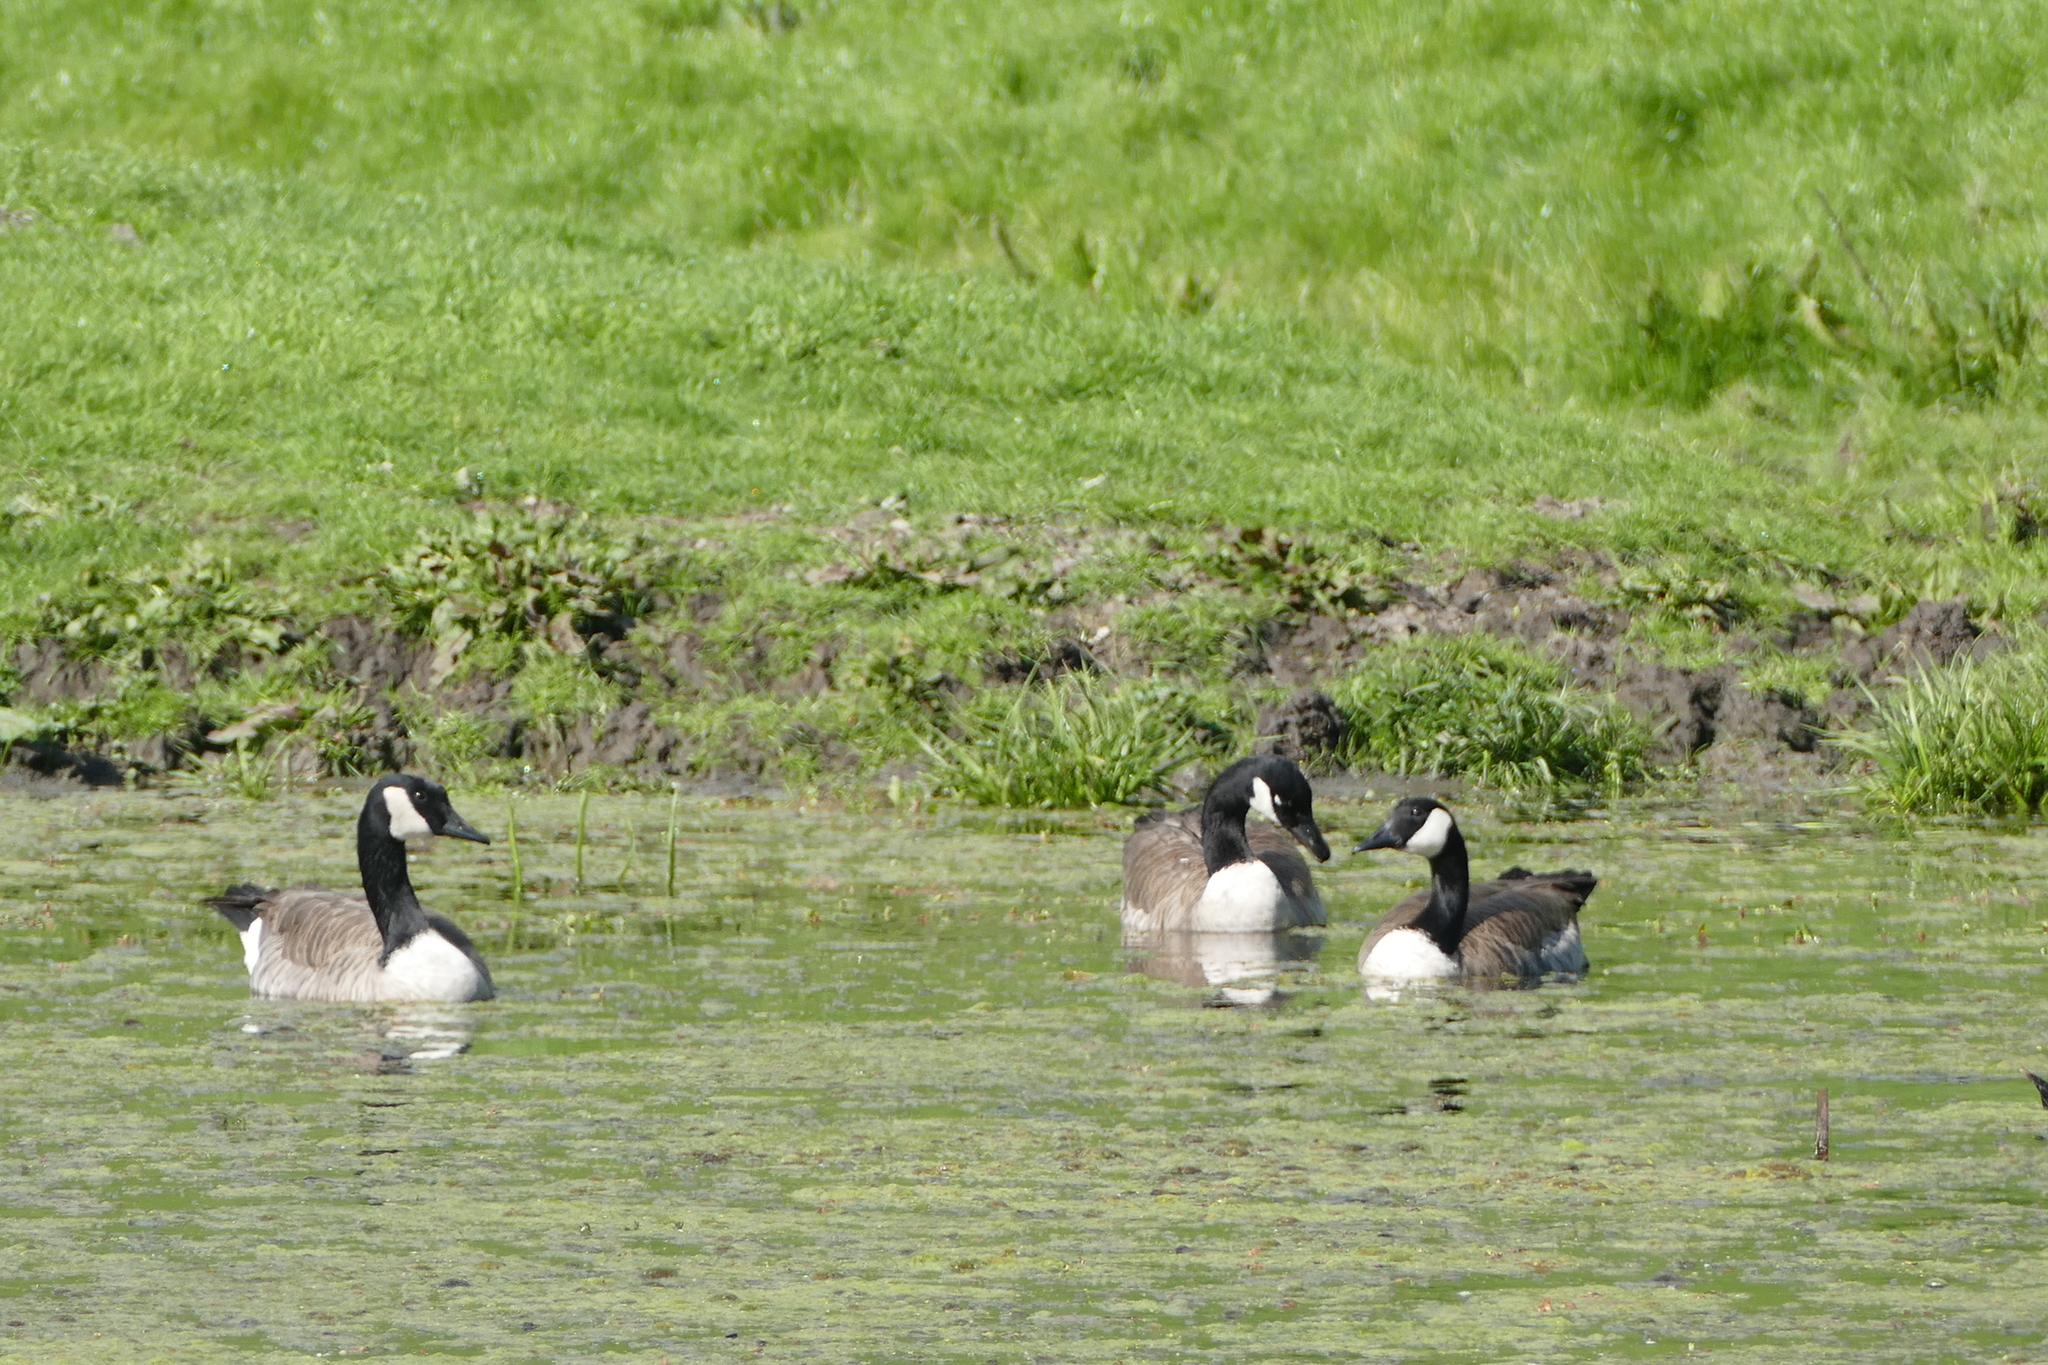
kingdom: Animalia
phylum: Chordata
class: Aves
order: Anseriformes
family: Anatidae
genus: Branta
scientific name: Branta canadensis
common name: Canada goose
